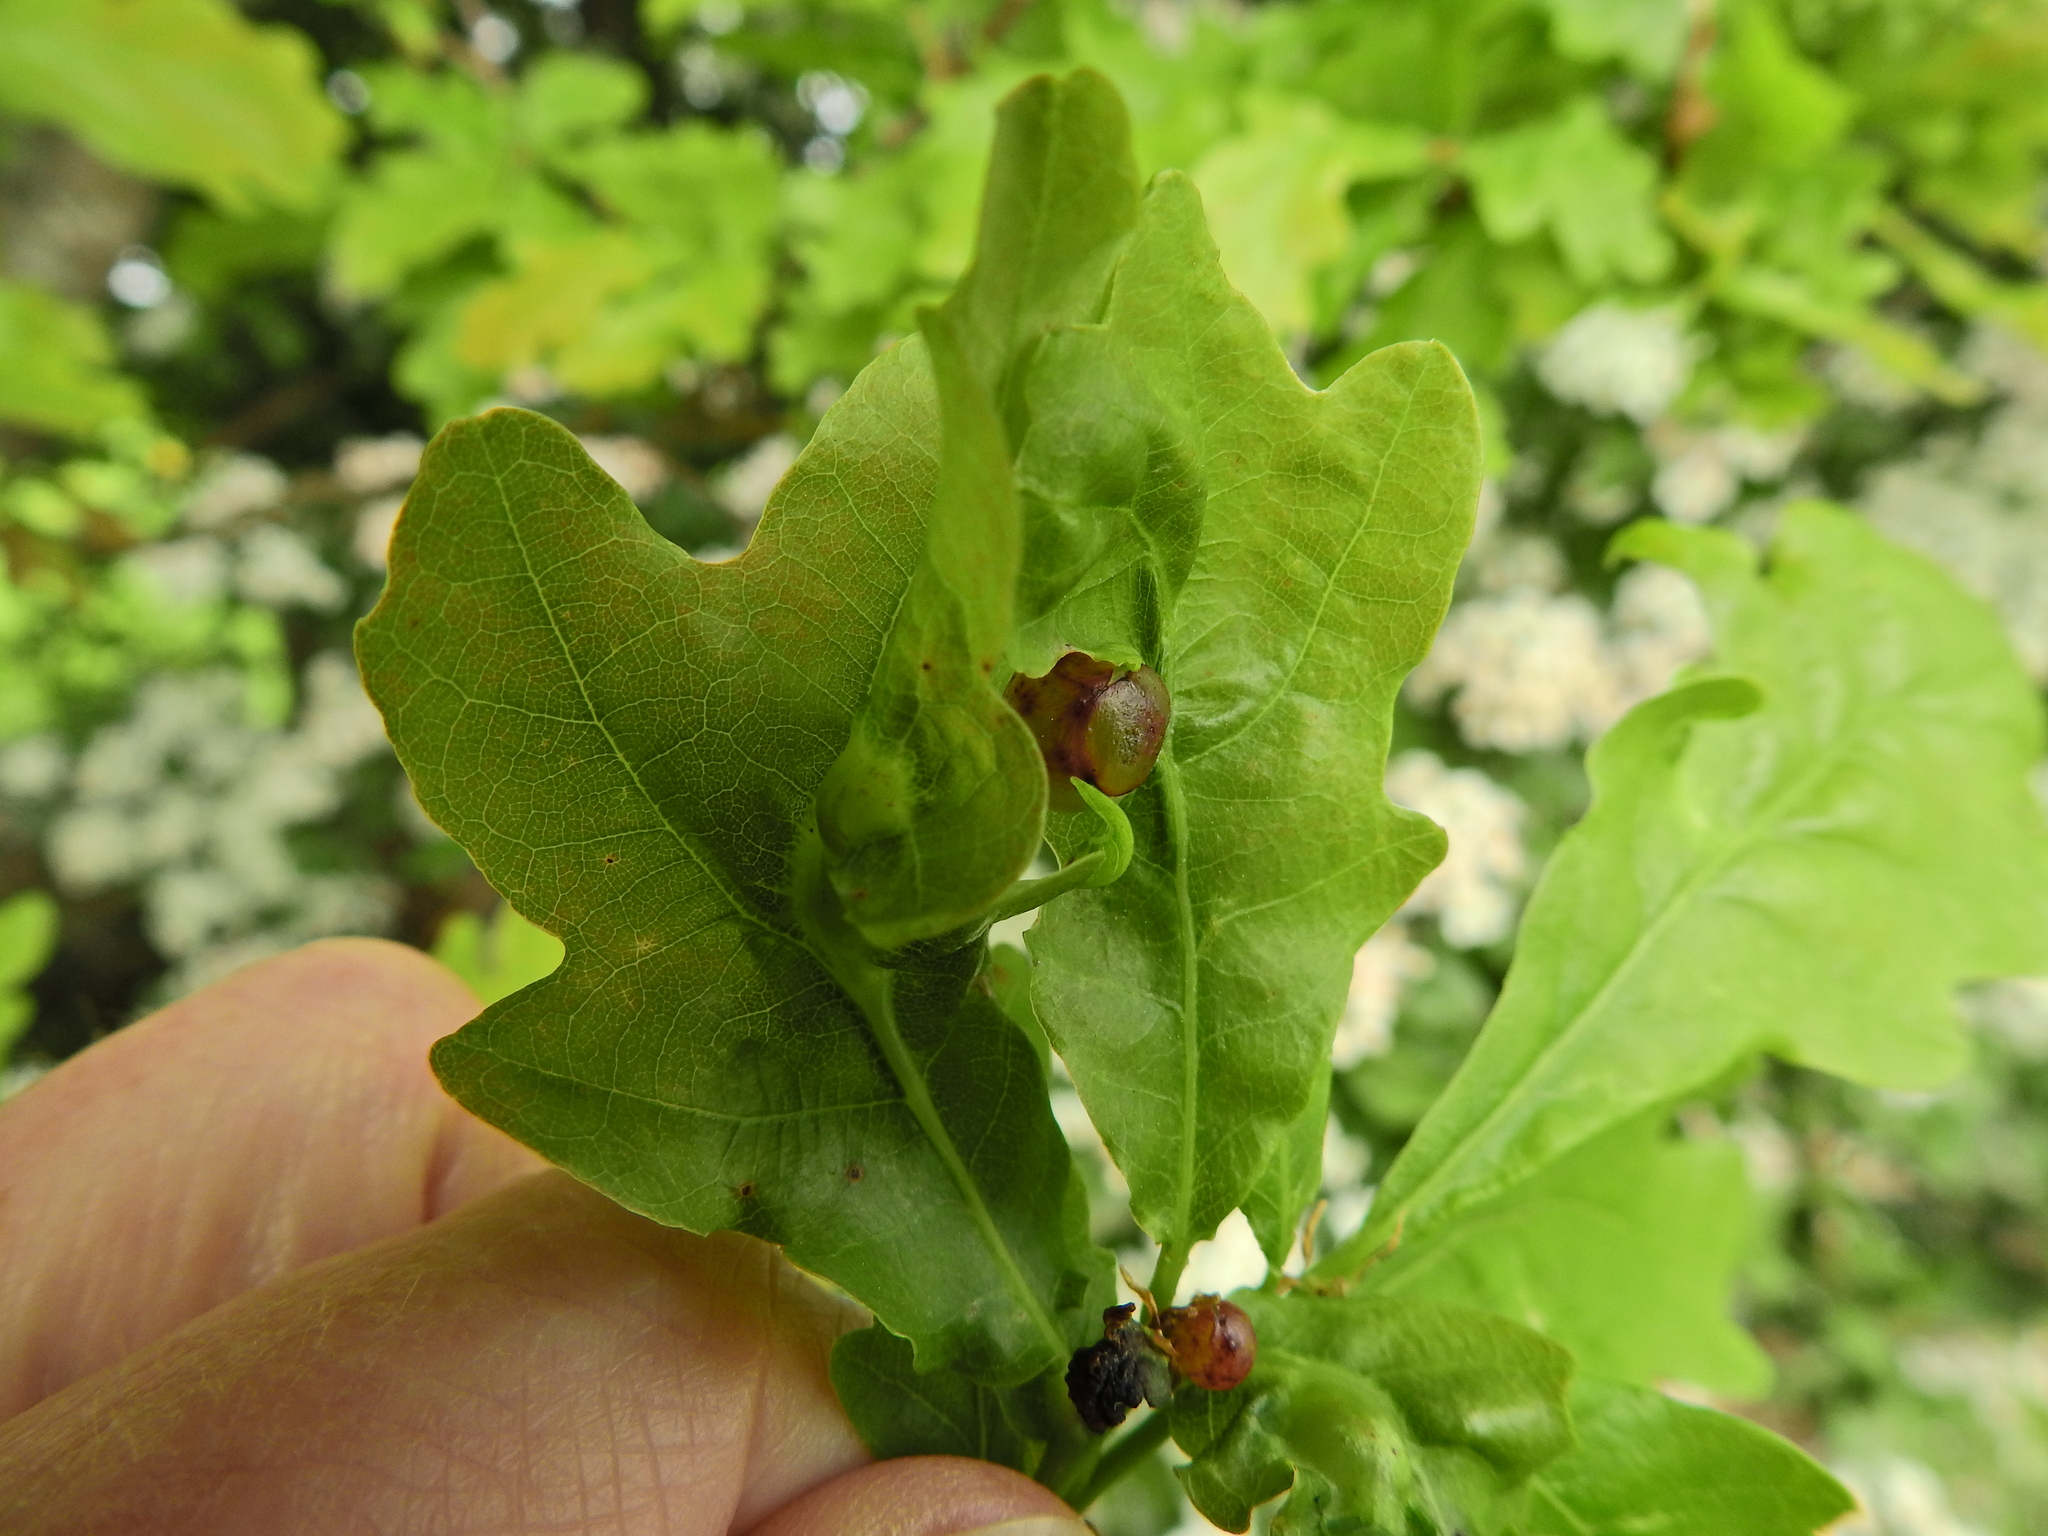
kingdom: Animalia
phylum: Arthropoda
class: Insecta
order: Hymenoptera
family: Cynipidae
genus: Neuroterus
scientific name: Neuroterus quercusbaccarum
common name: Common spangle gall
